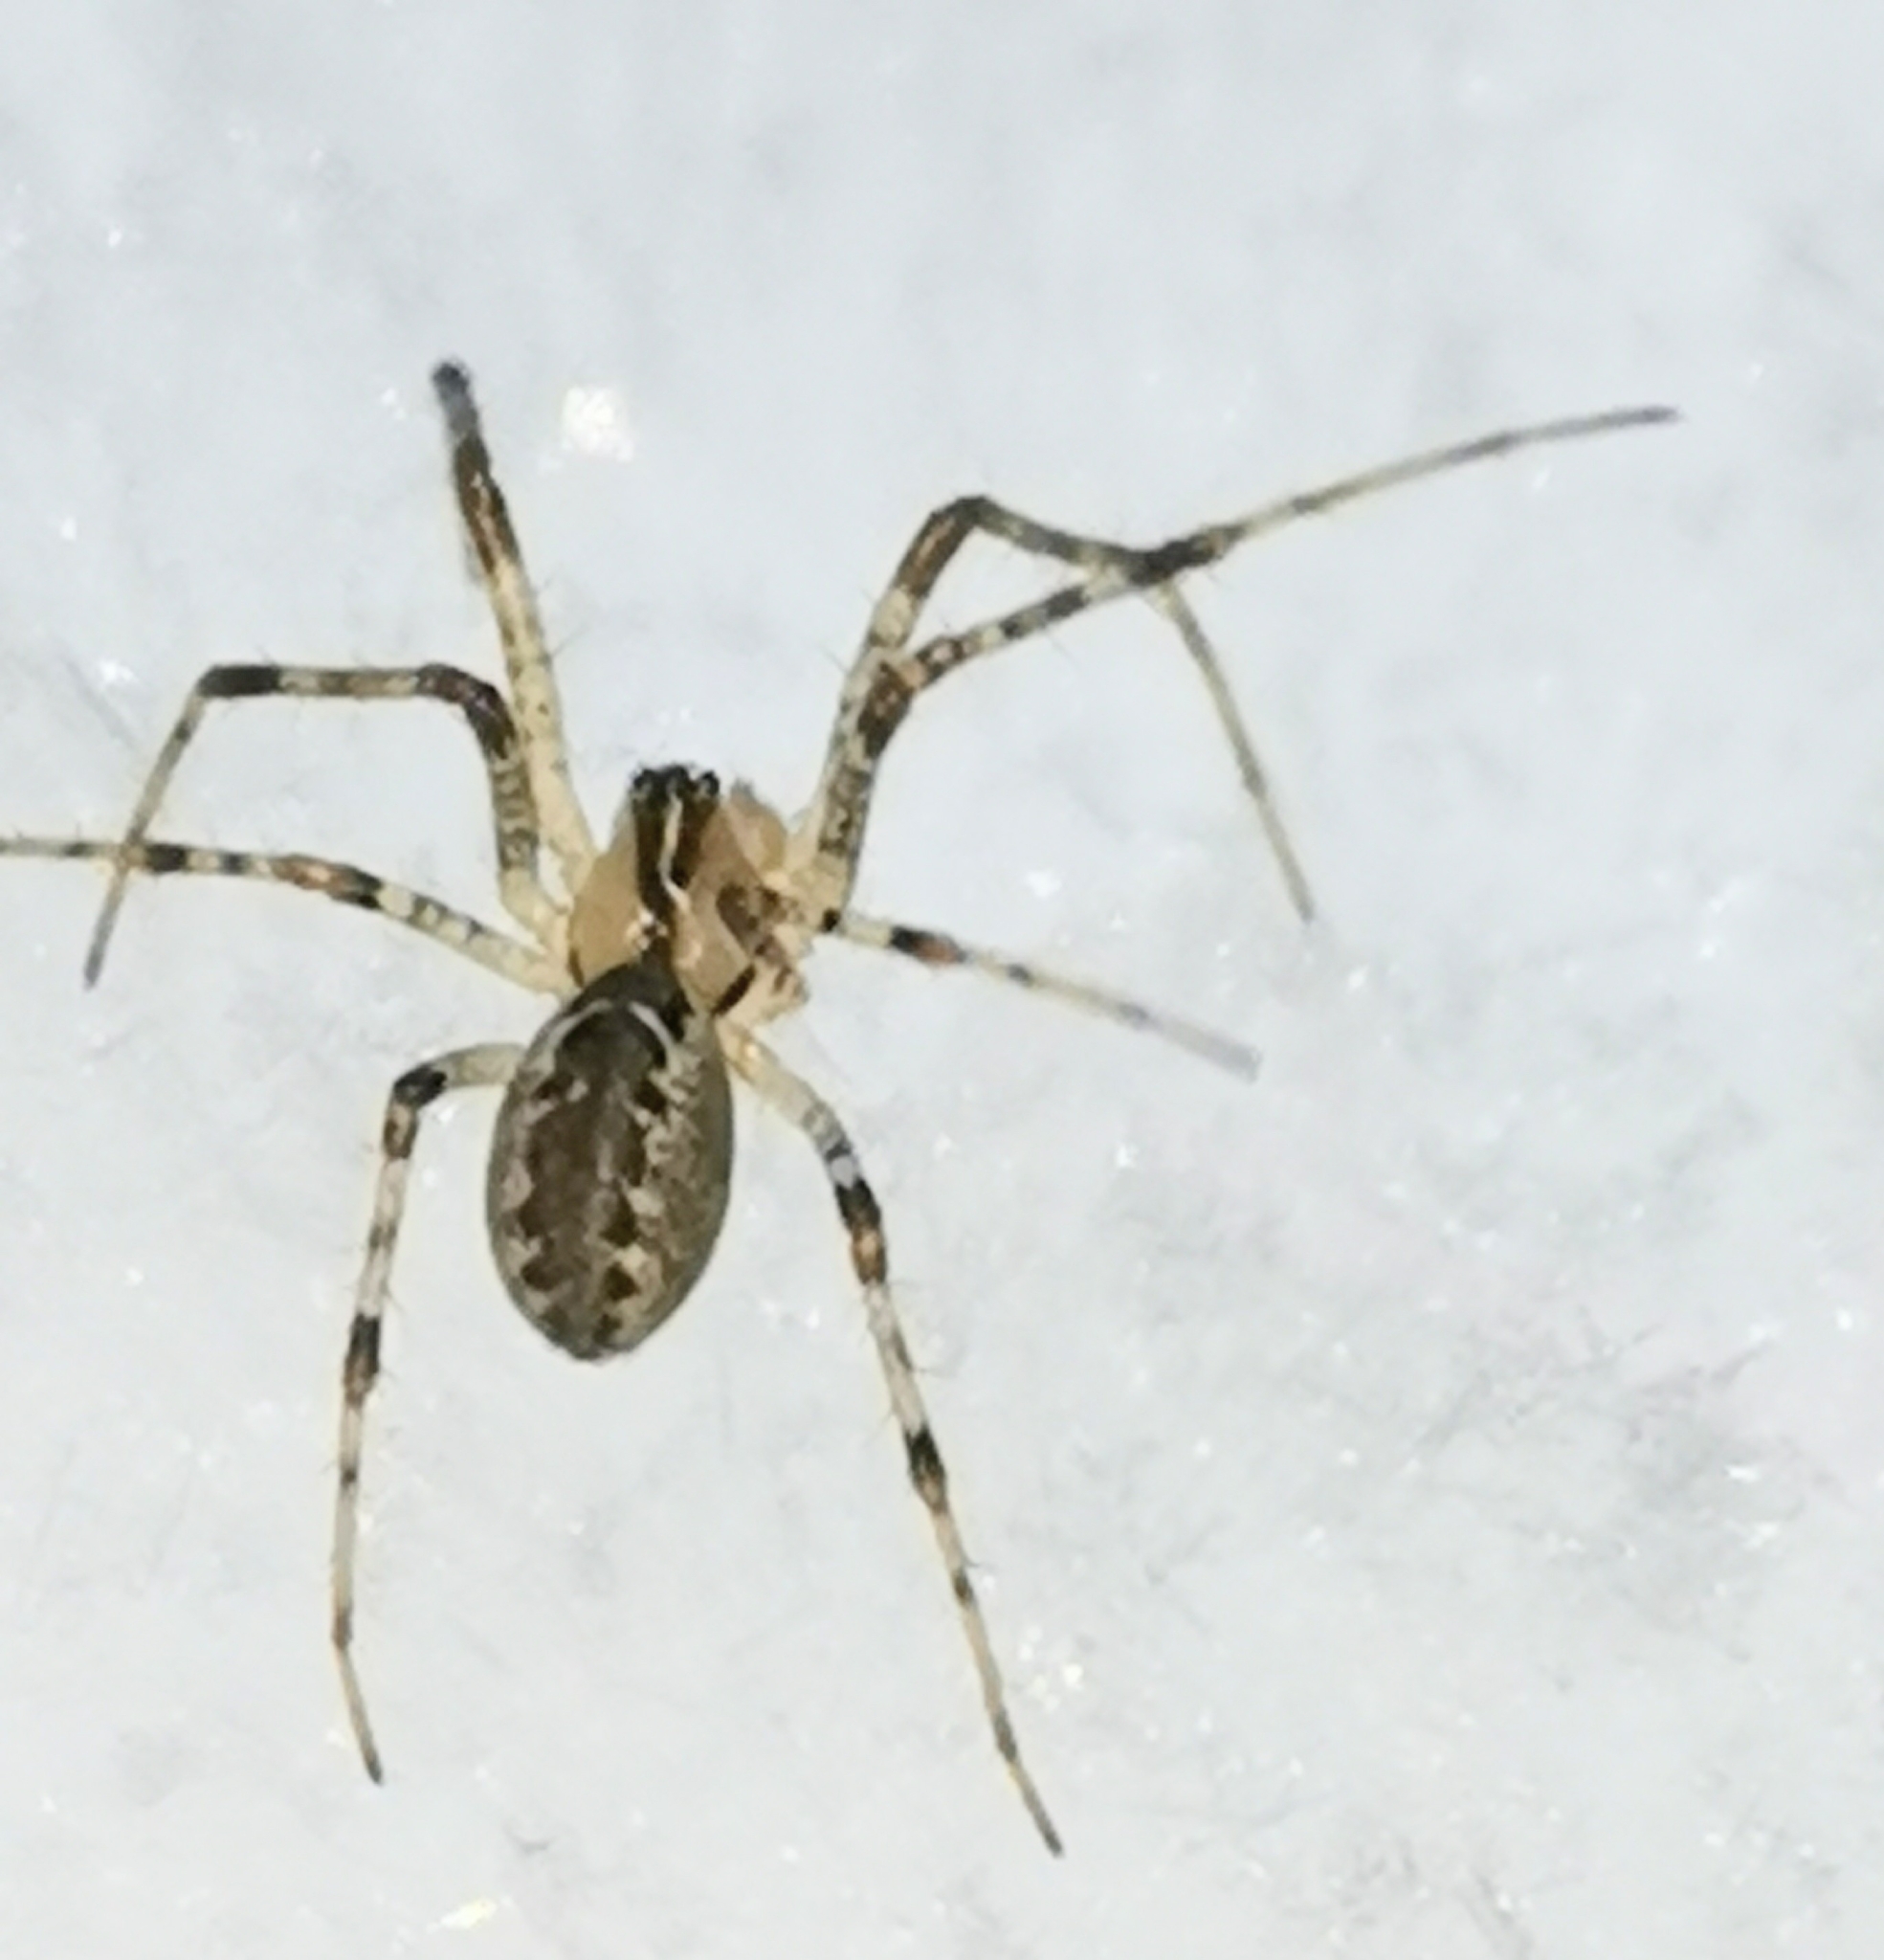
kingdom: Animalia
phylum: Arthropoda
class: Arachnida
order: Araneae
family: Linyphiidae
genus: Pityohyphantes
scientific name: Pityohyphantes phrygianus
